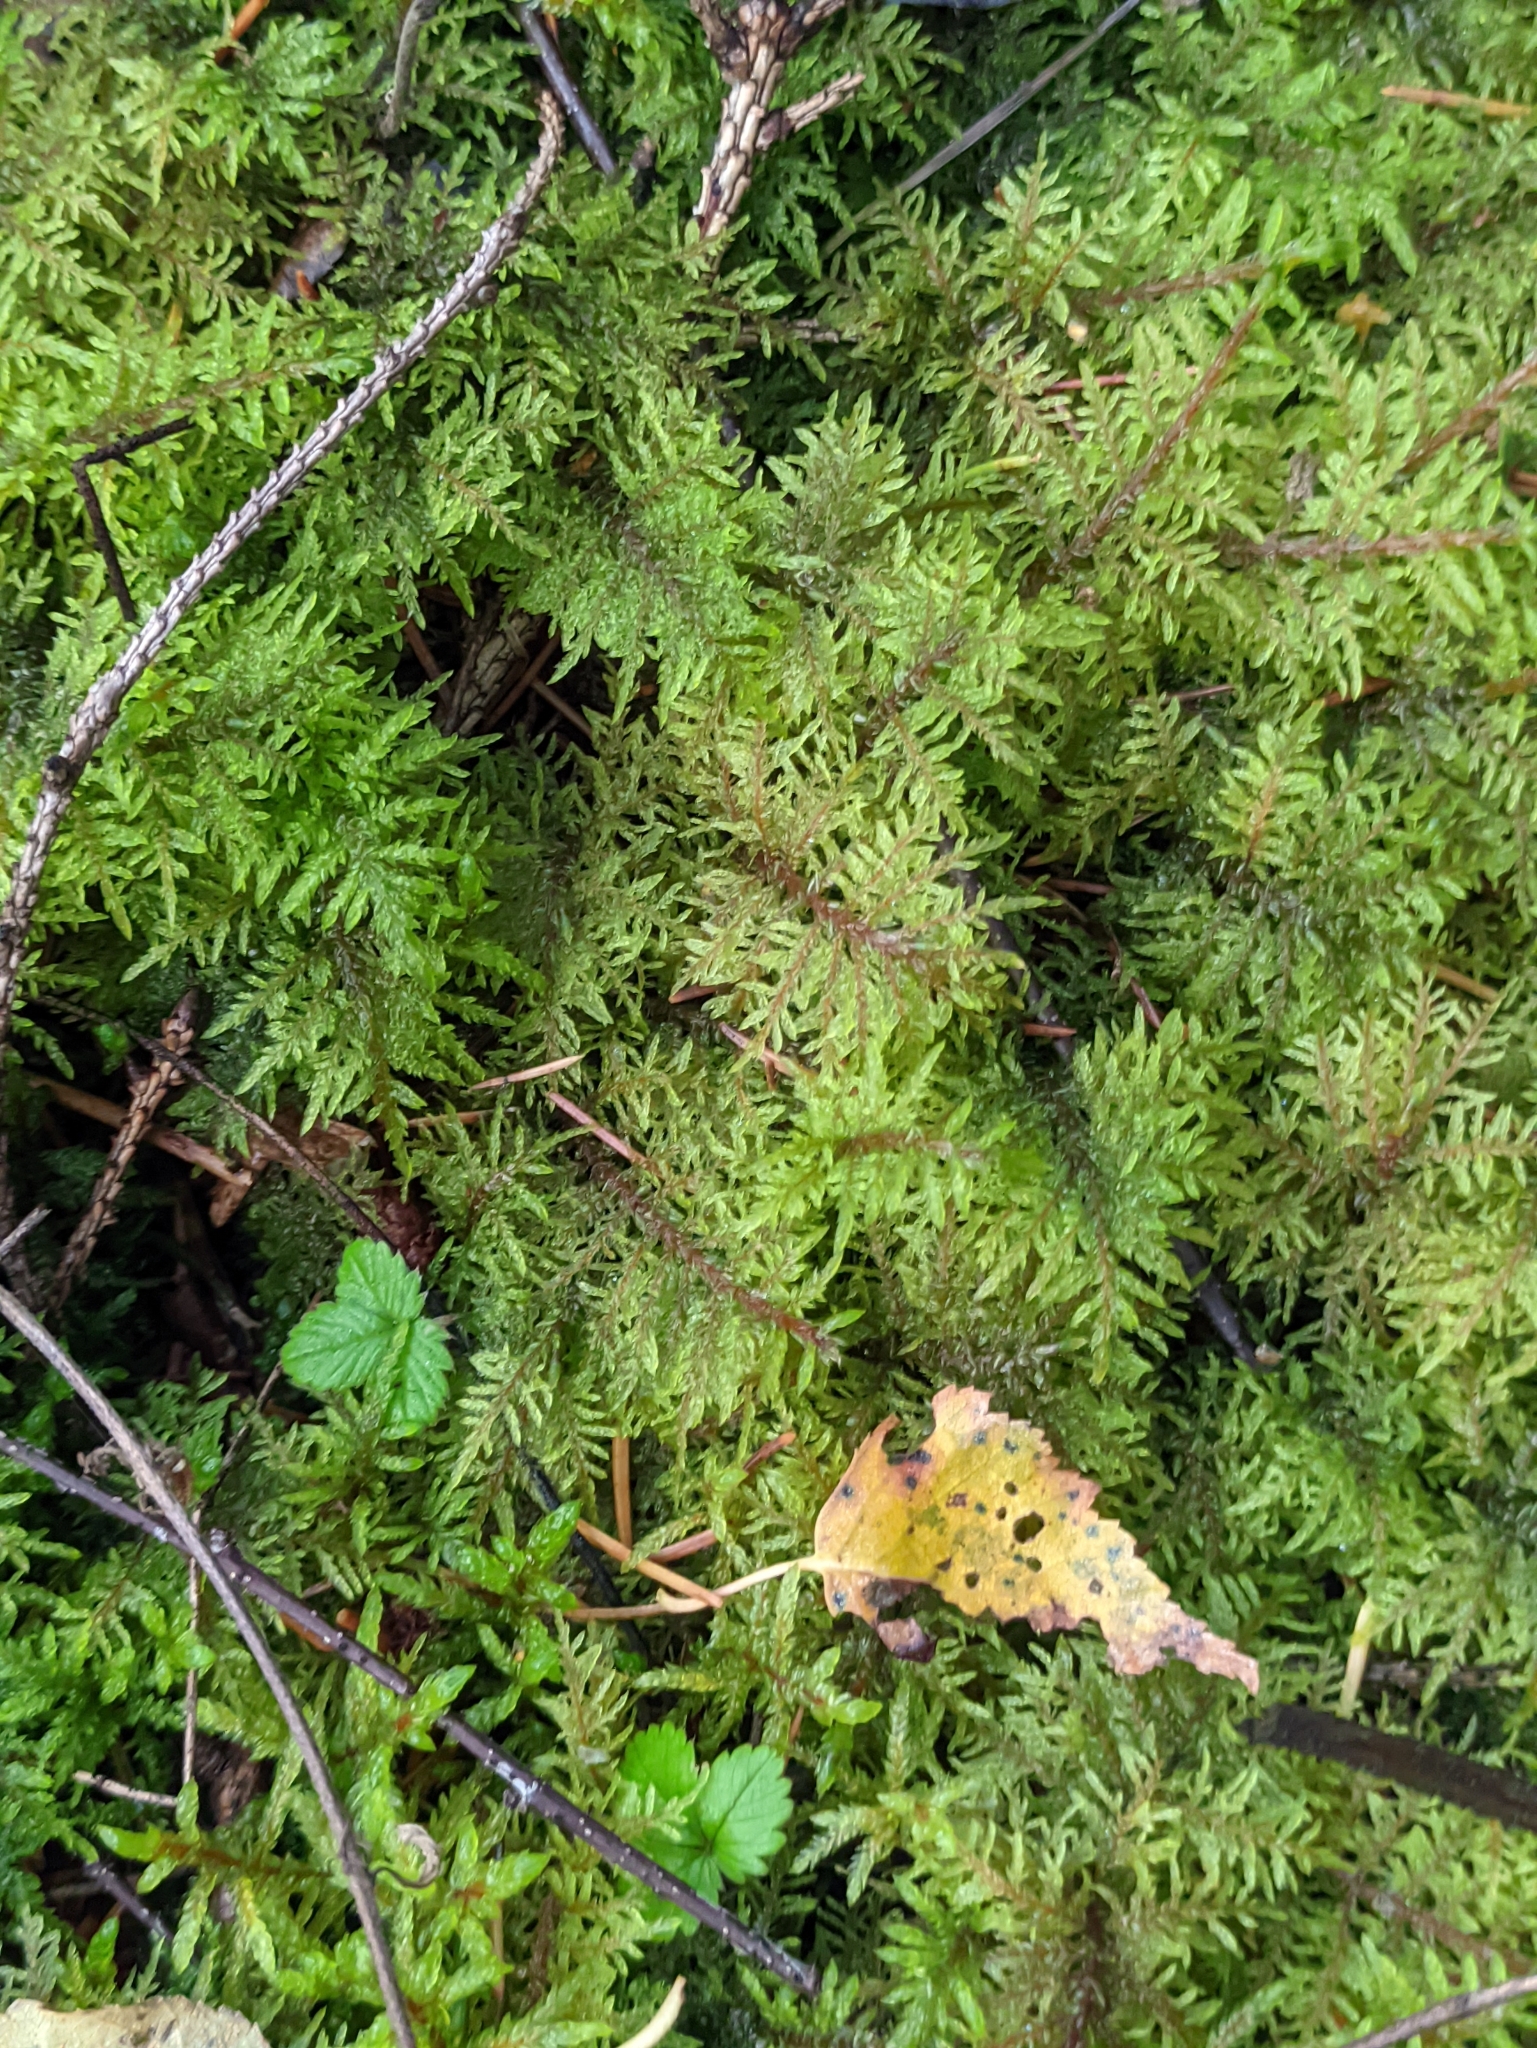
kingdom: Plantae
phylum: Bryophyta
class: Bryopsida
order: Hypnales
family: Hylocomiaceae
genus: Hylocomium
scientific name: Hylocomium splendens
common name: Stairstep moss
